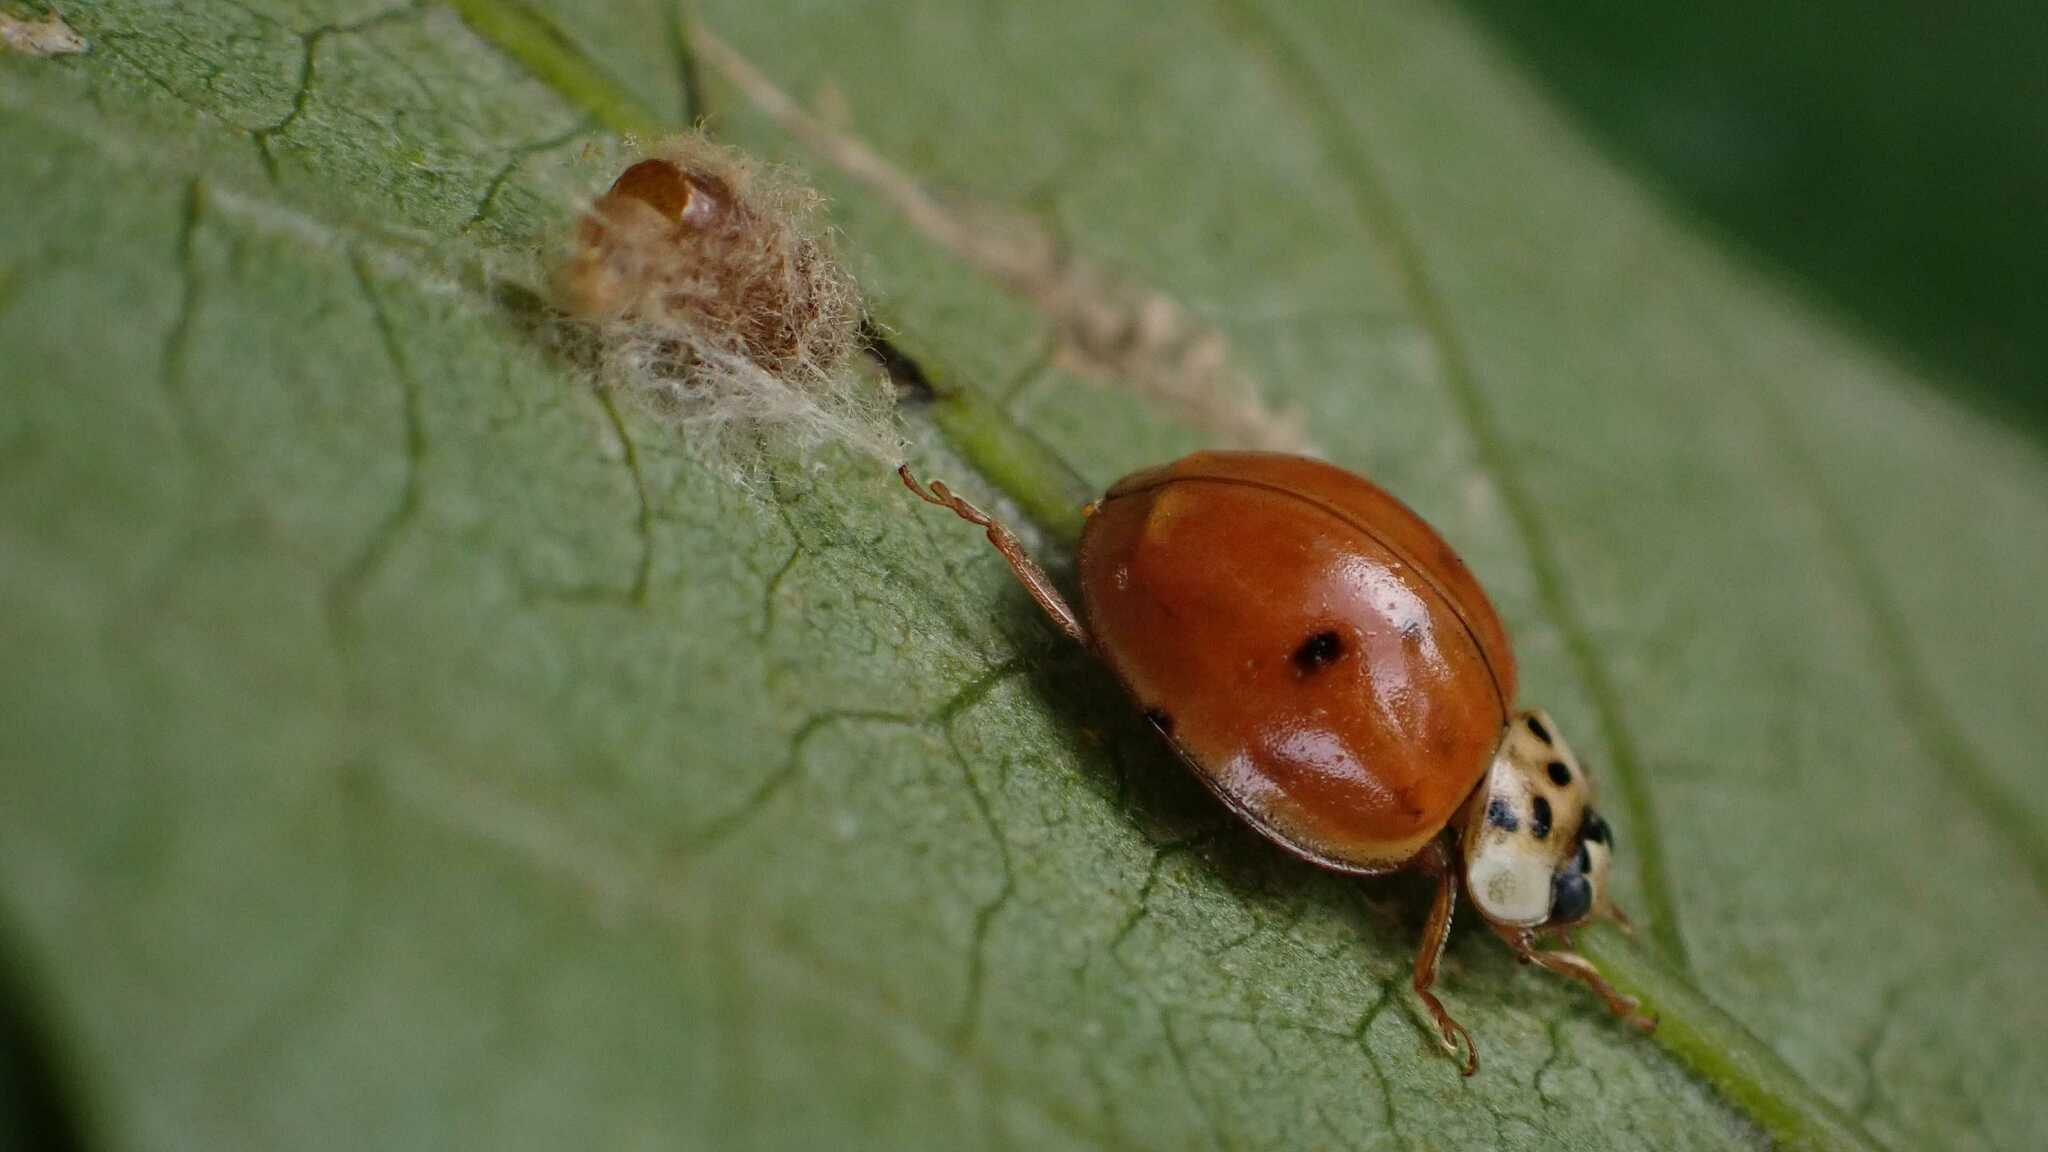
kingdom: Animalia
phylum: Arthropoda
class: Insecta
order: Hymenoptera
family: Braconidae
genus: Dinocampus
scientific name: Dinocampus coccinellae
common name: Braconid wasp
